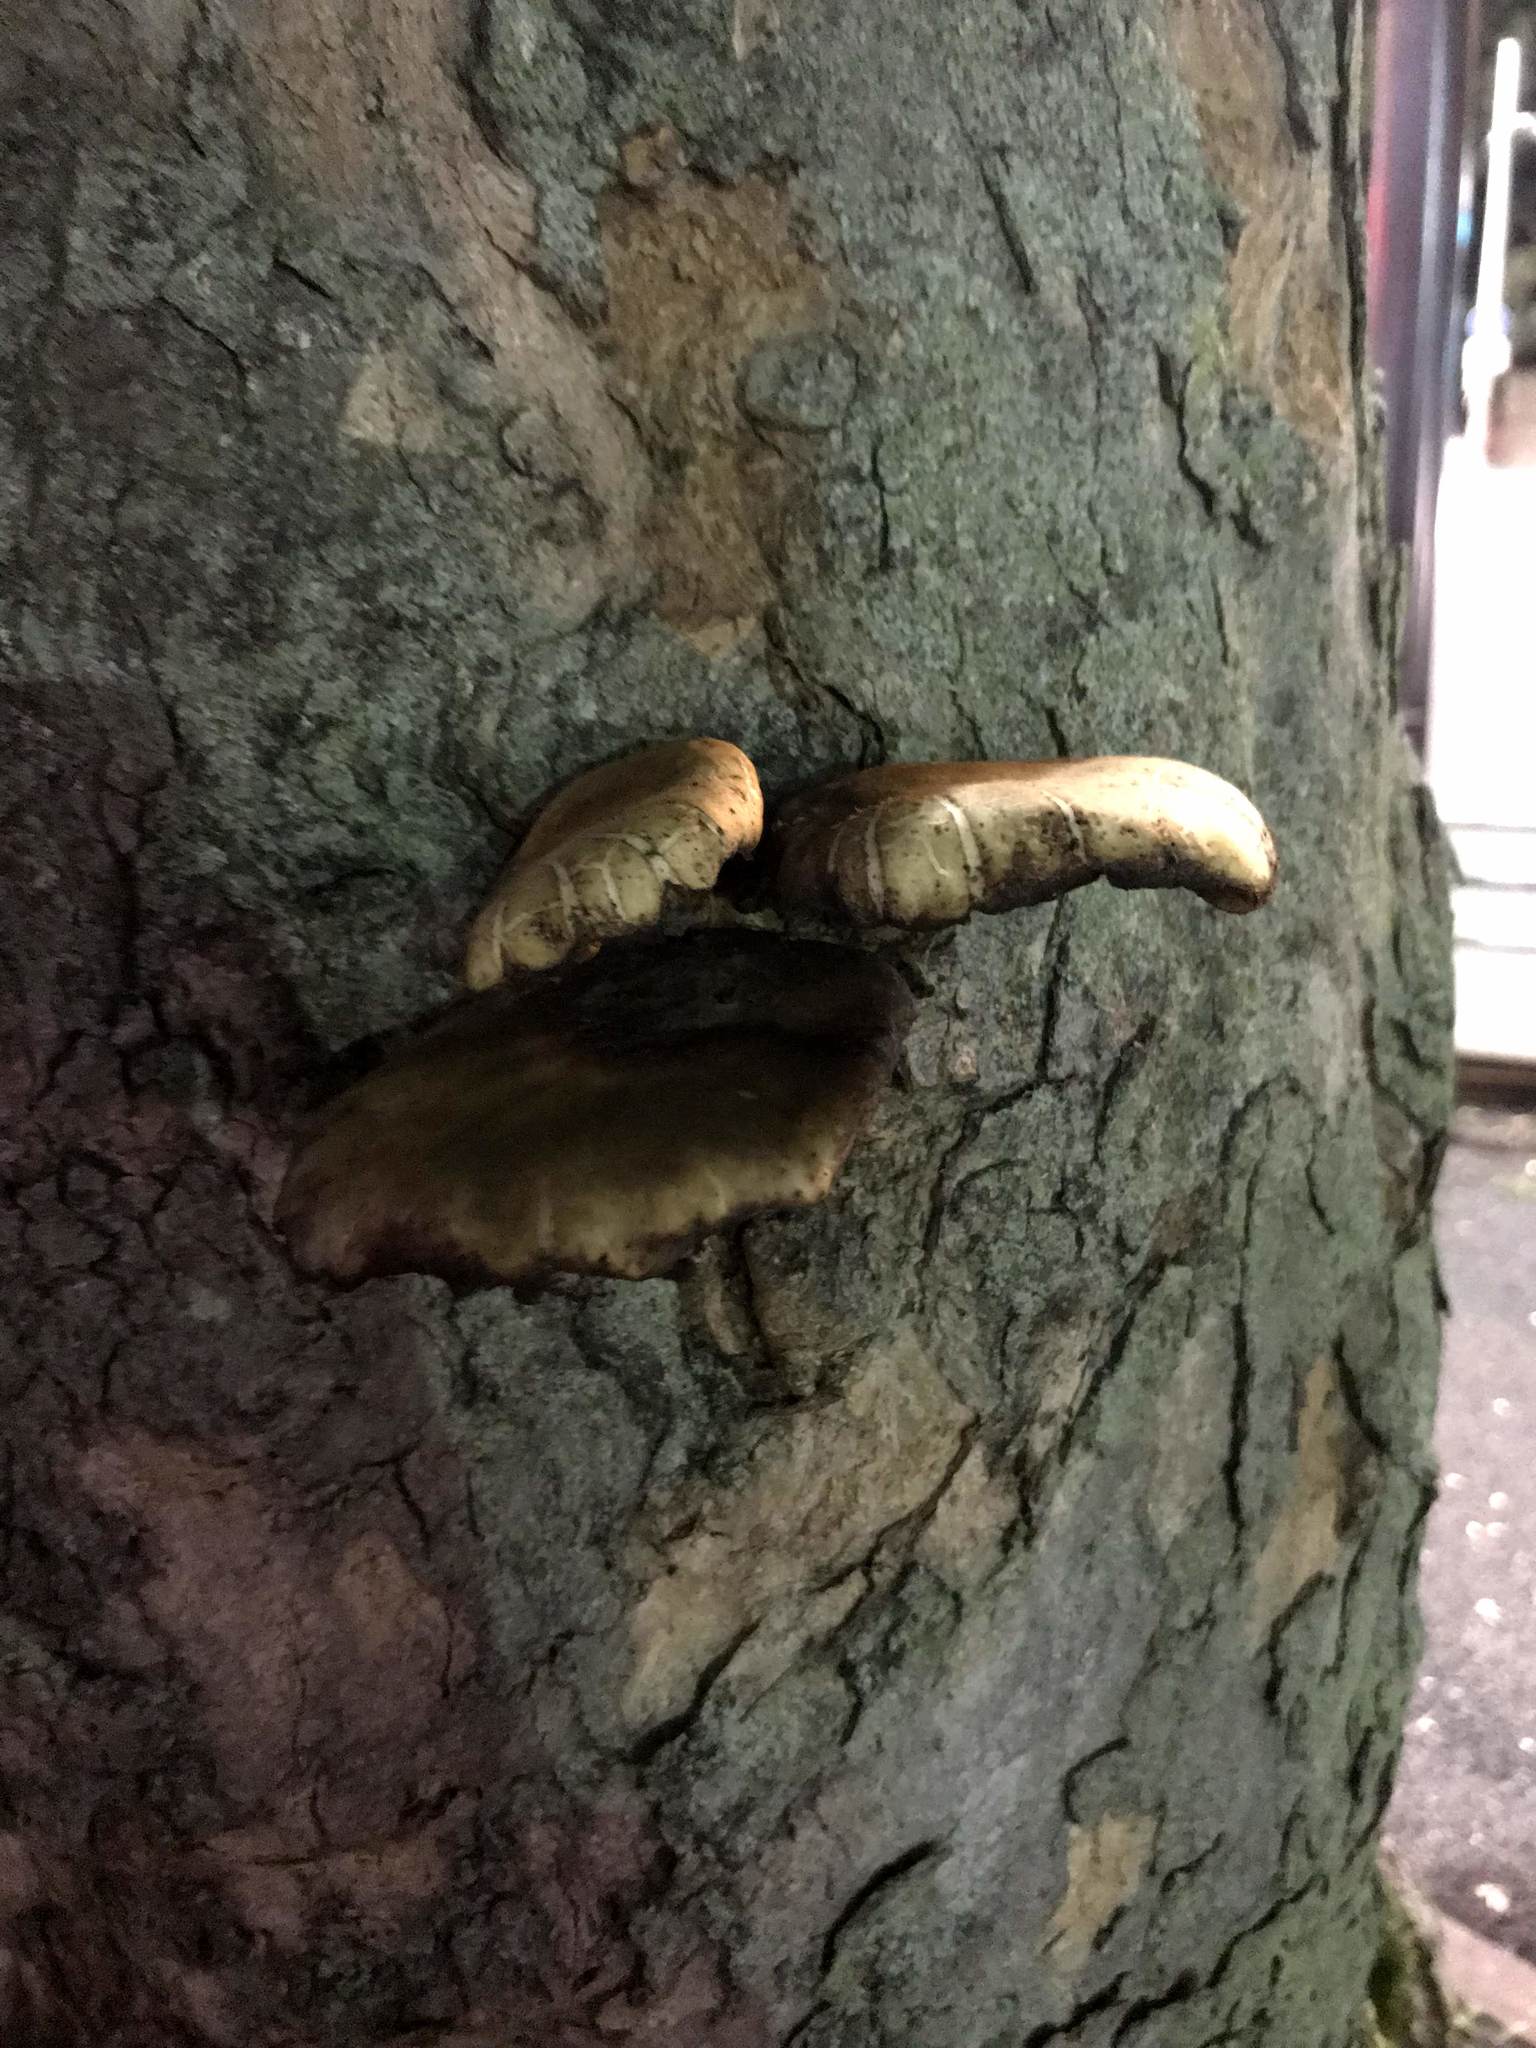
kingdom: Fungi
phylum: Basidiomycota
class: Agaricomycetes
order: Agaricales
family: Tubariaceae
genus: Cyclocybe
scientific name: Cyclocybe cylindracea
